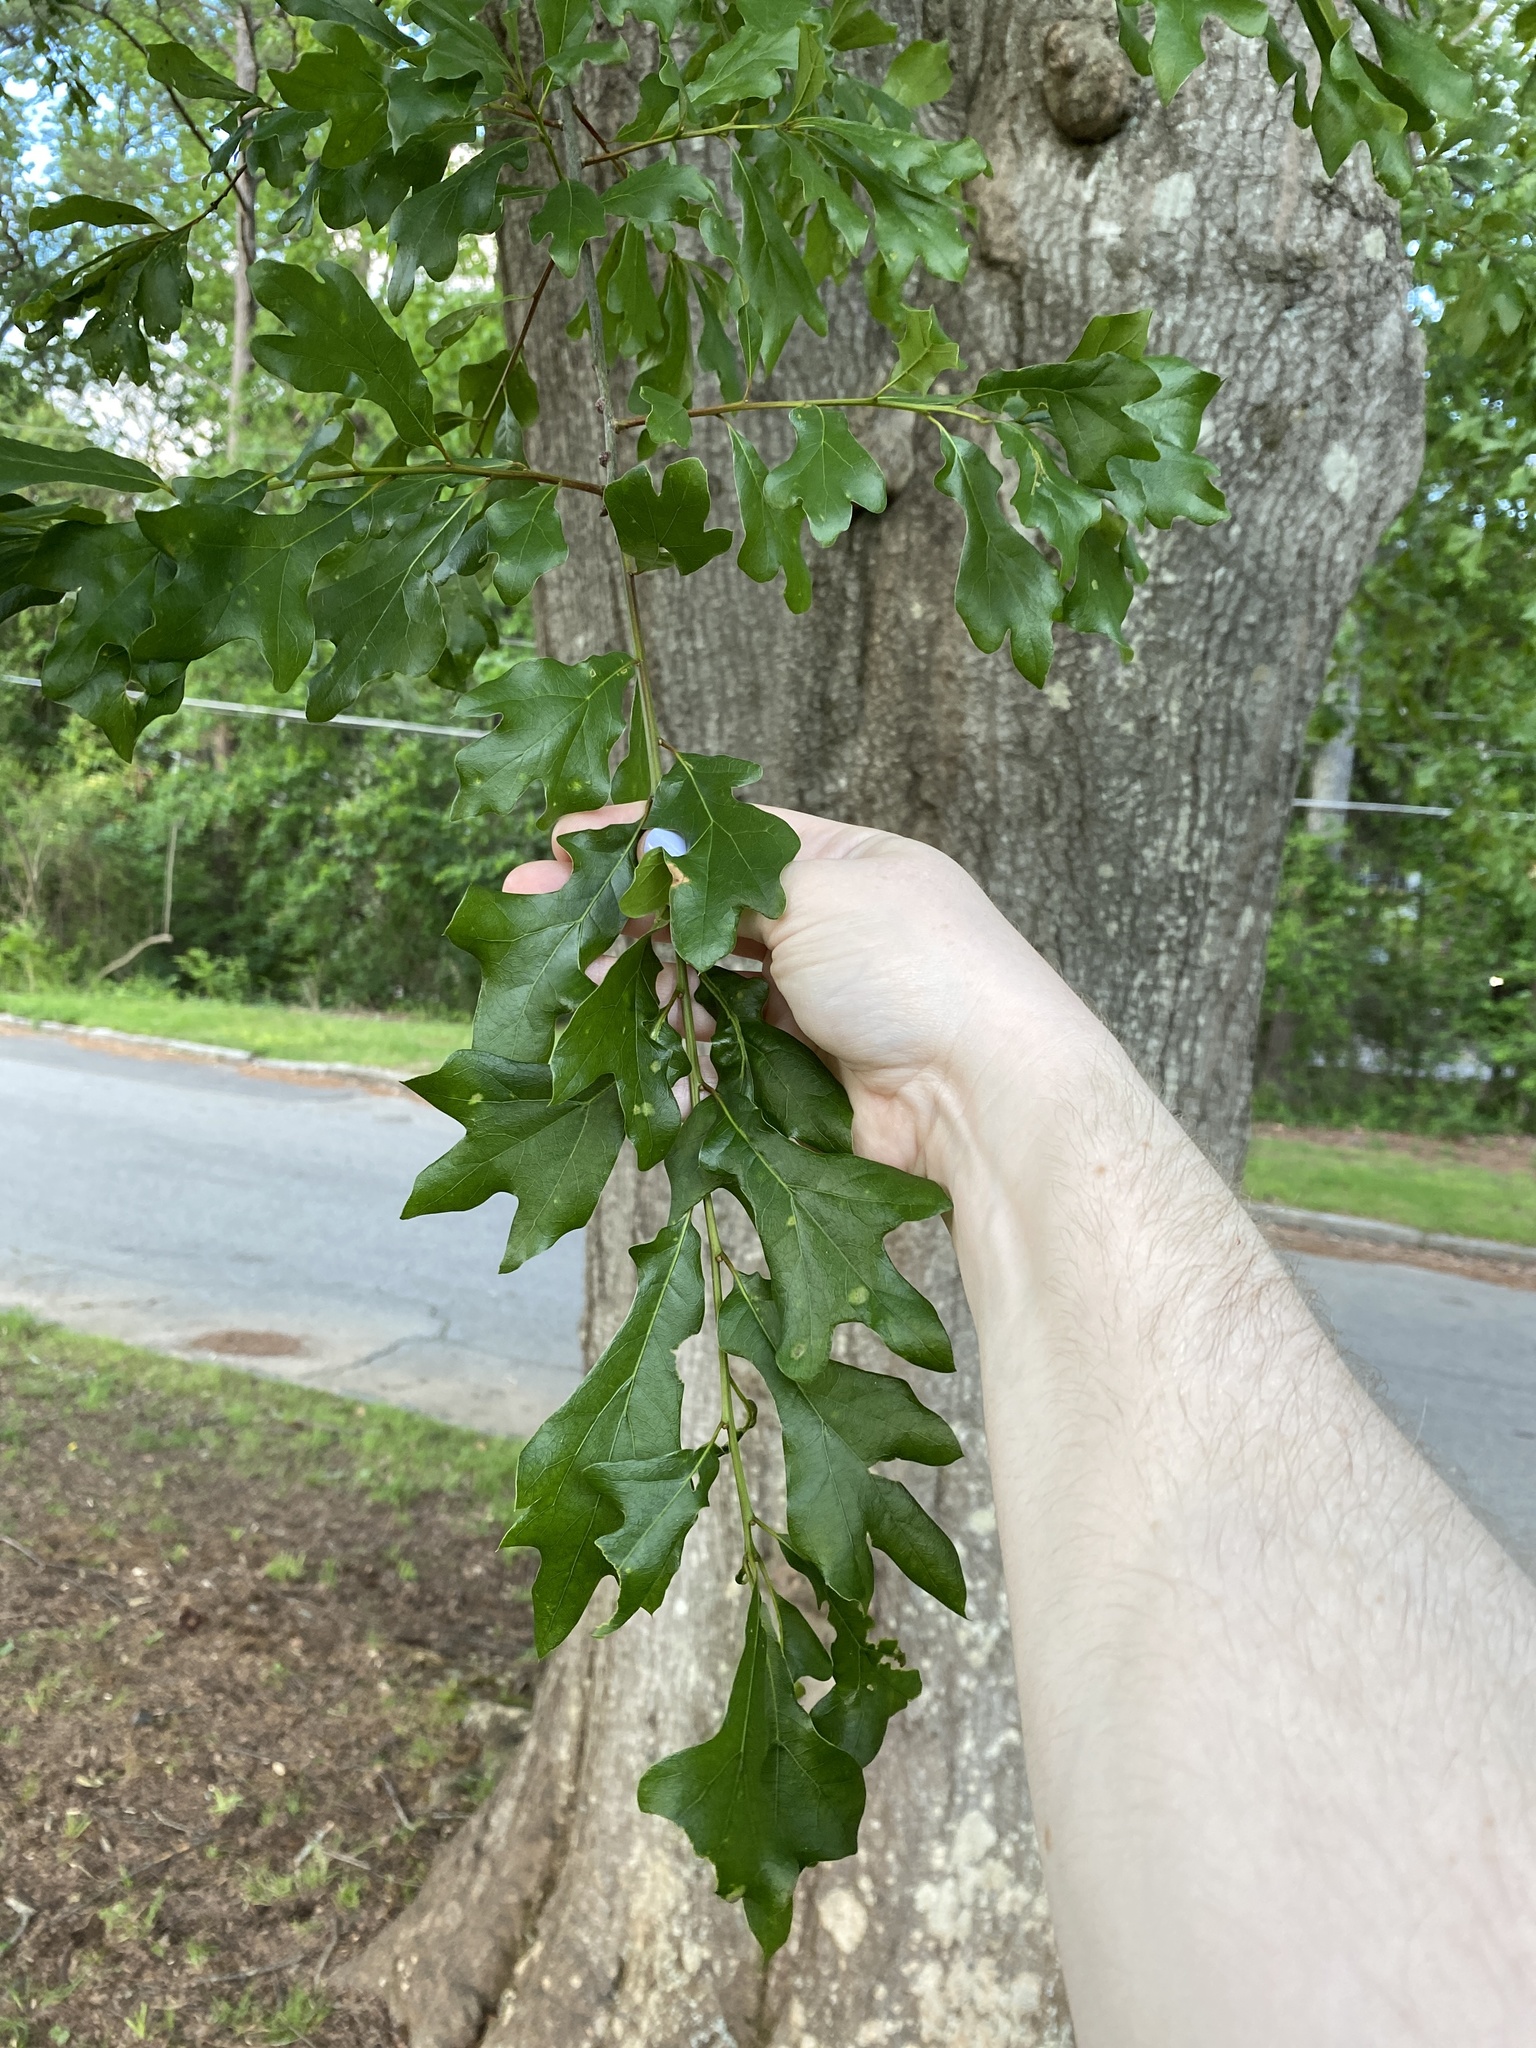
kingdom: Plantae
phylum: Tracheophyta
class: Magnoliopsida
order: Fagales
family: Fagaceae
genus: Quercus
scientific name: Quercus nigra
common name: Water oak
